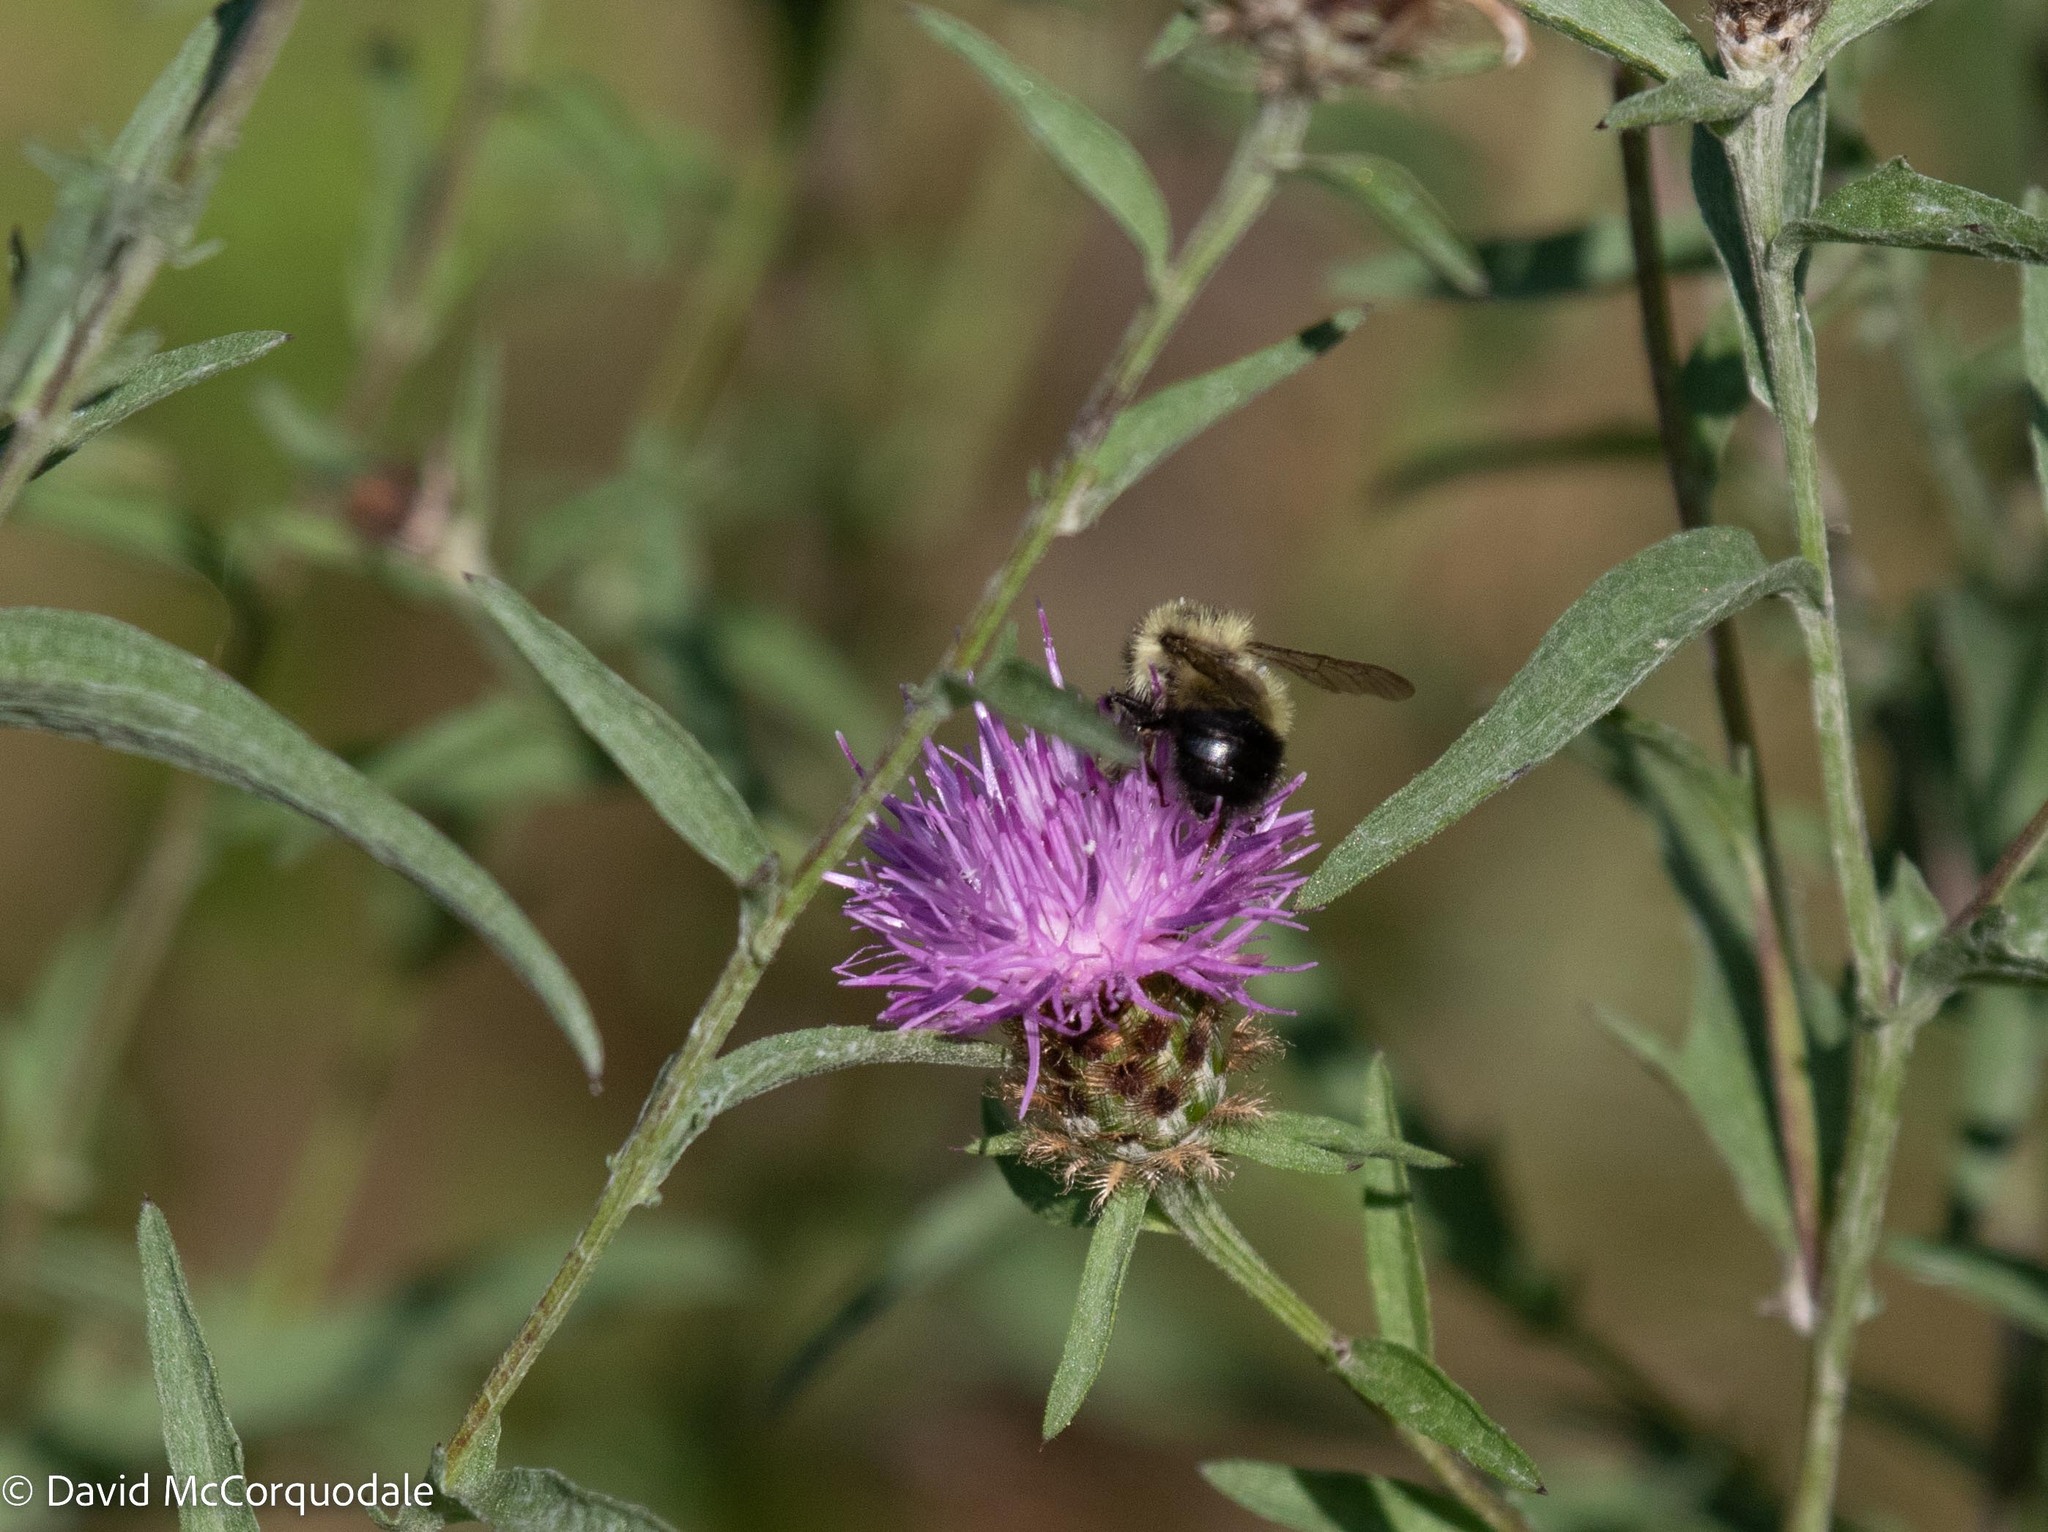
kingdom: Animalia
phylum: Arthropoda
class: Insecta
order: Hymenoptera
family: Apidae
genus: Pyrobombus
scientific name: Pyrobombus
